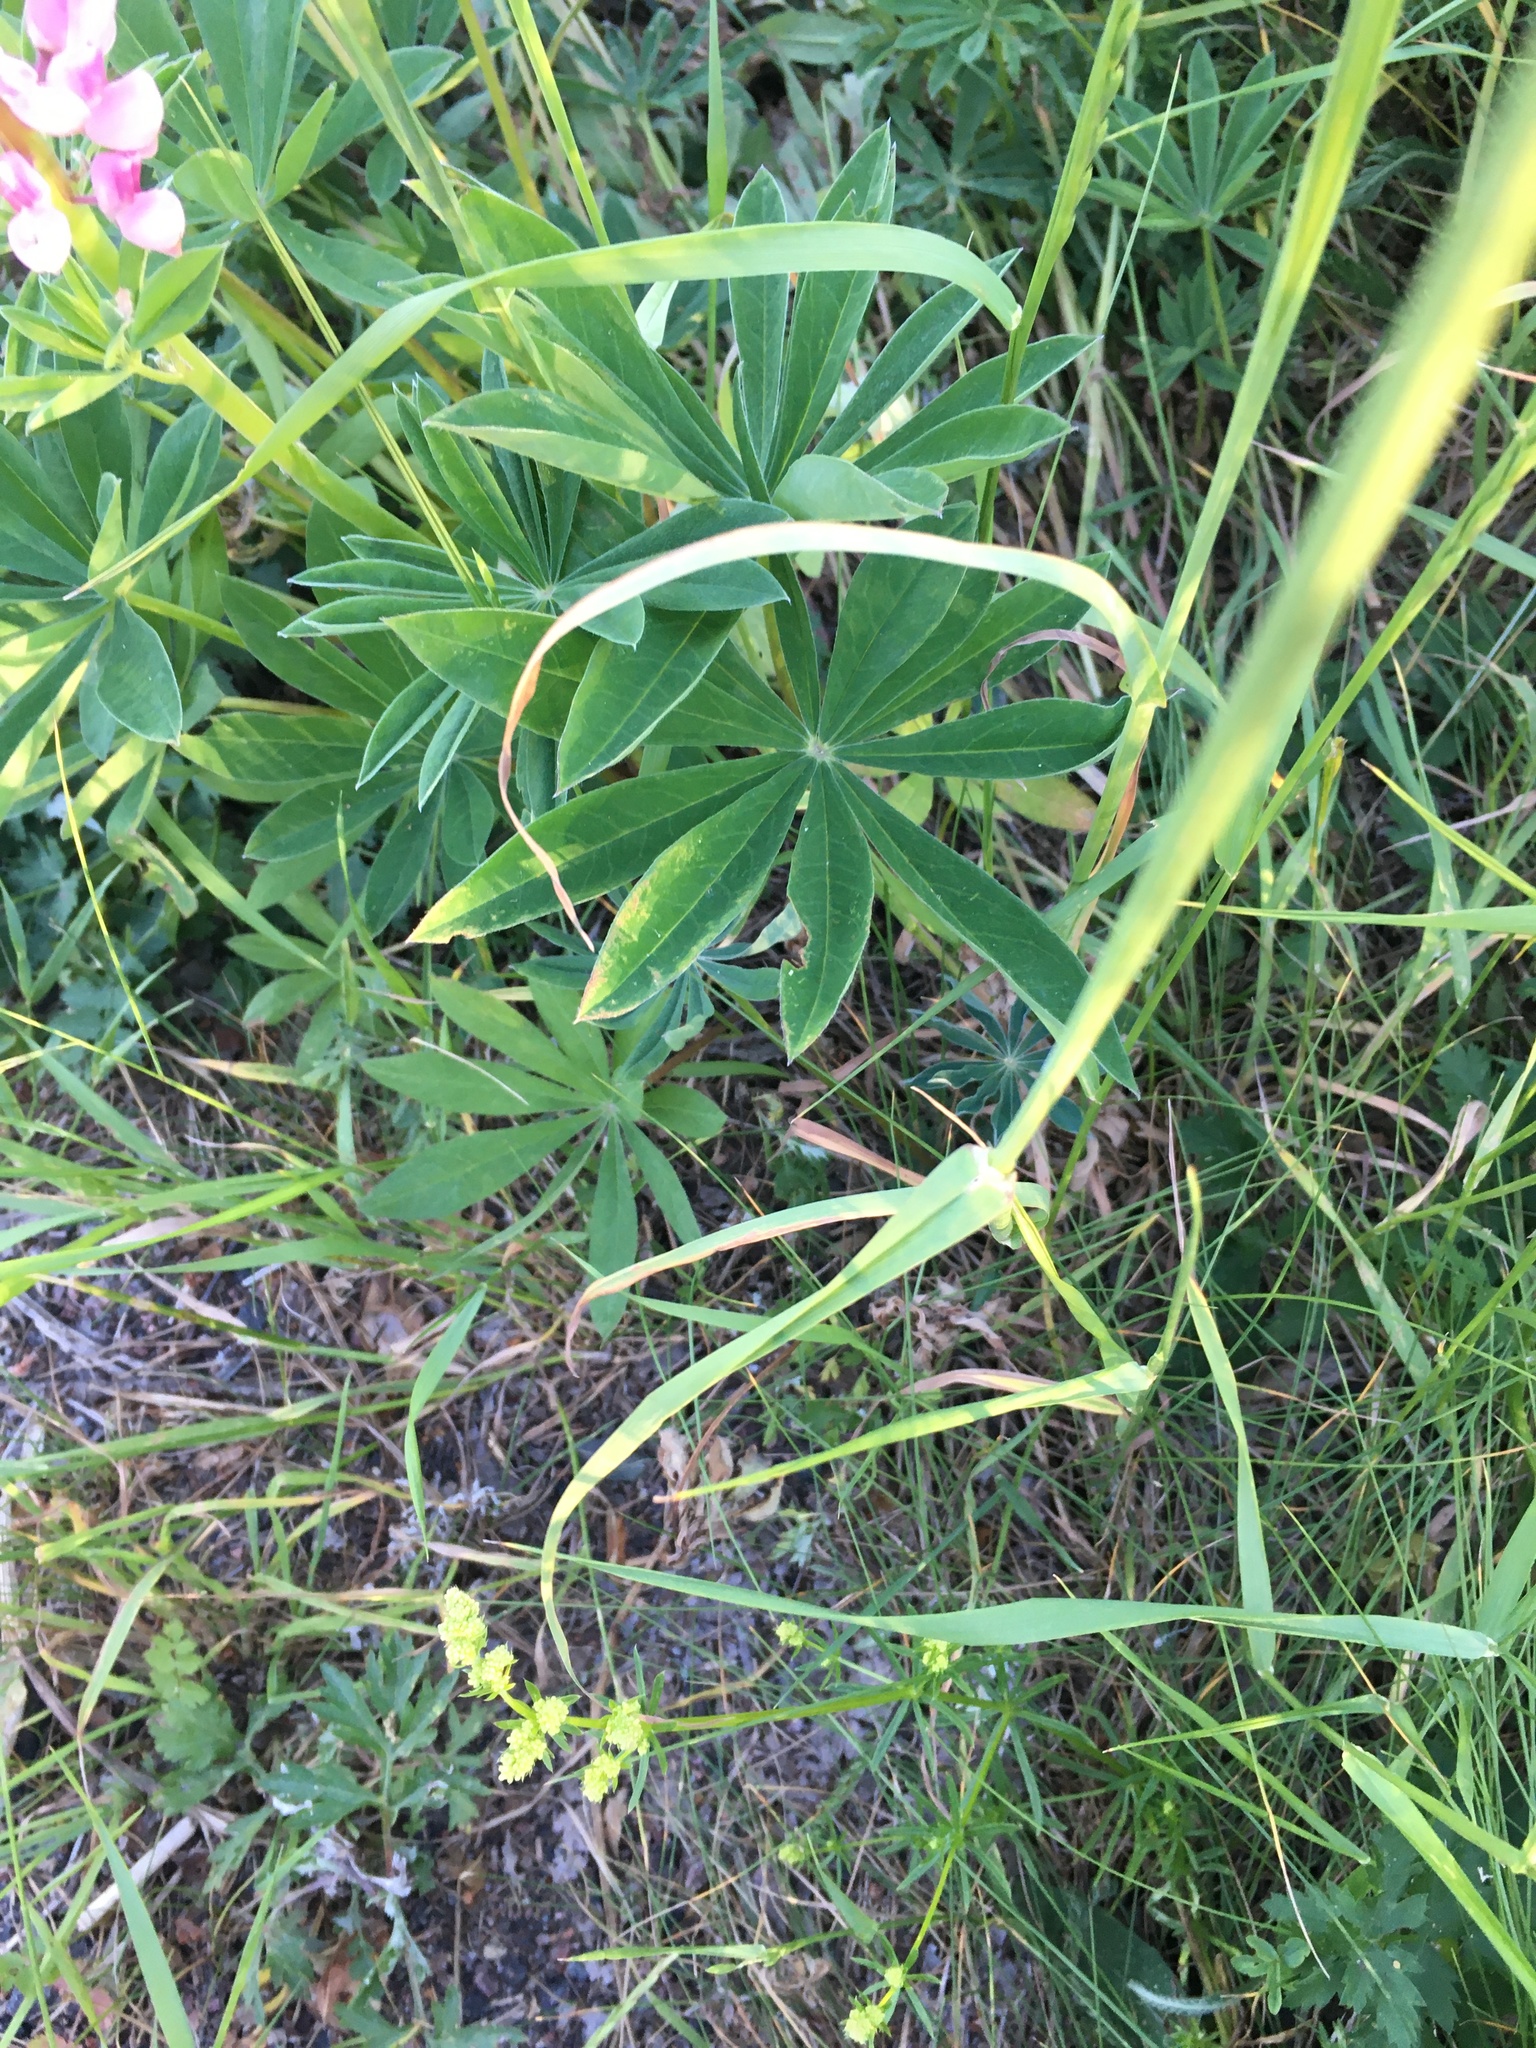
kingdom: Plantae
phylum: Tracheophyta
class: Magnoliopsida
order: Fabales
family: Fabaceae
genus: Lupinus
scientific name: Lupinus polyphyllus
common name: Garden lupin
